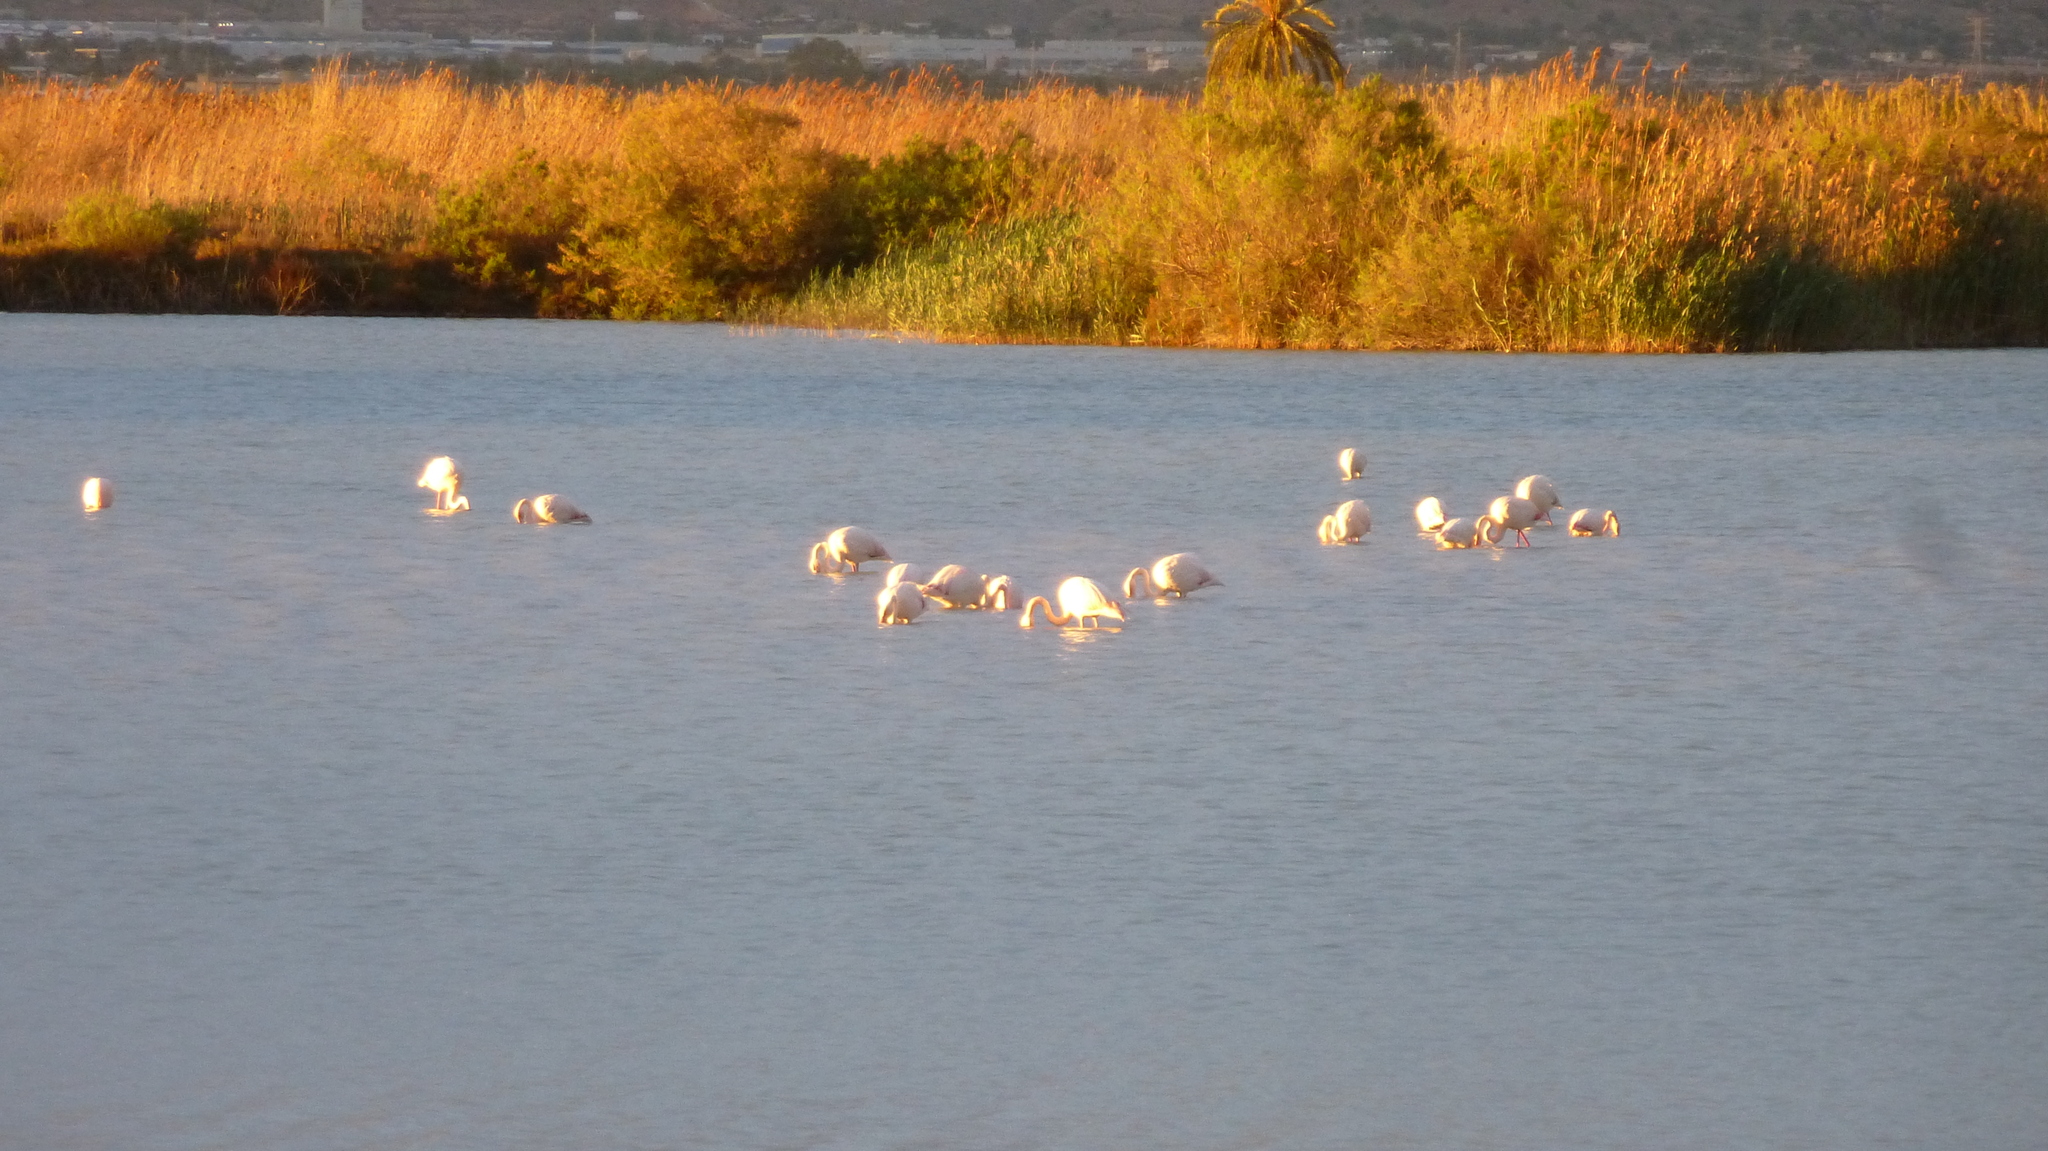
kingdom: Animalia
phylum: Chordata
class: Aves
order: Phoenicopteriformes
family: Phoenicopteridae
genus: Phoenicopterus
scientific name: Phoenicopterus roseus
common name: Greater flamingo
